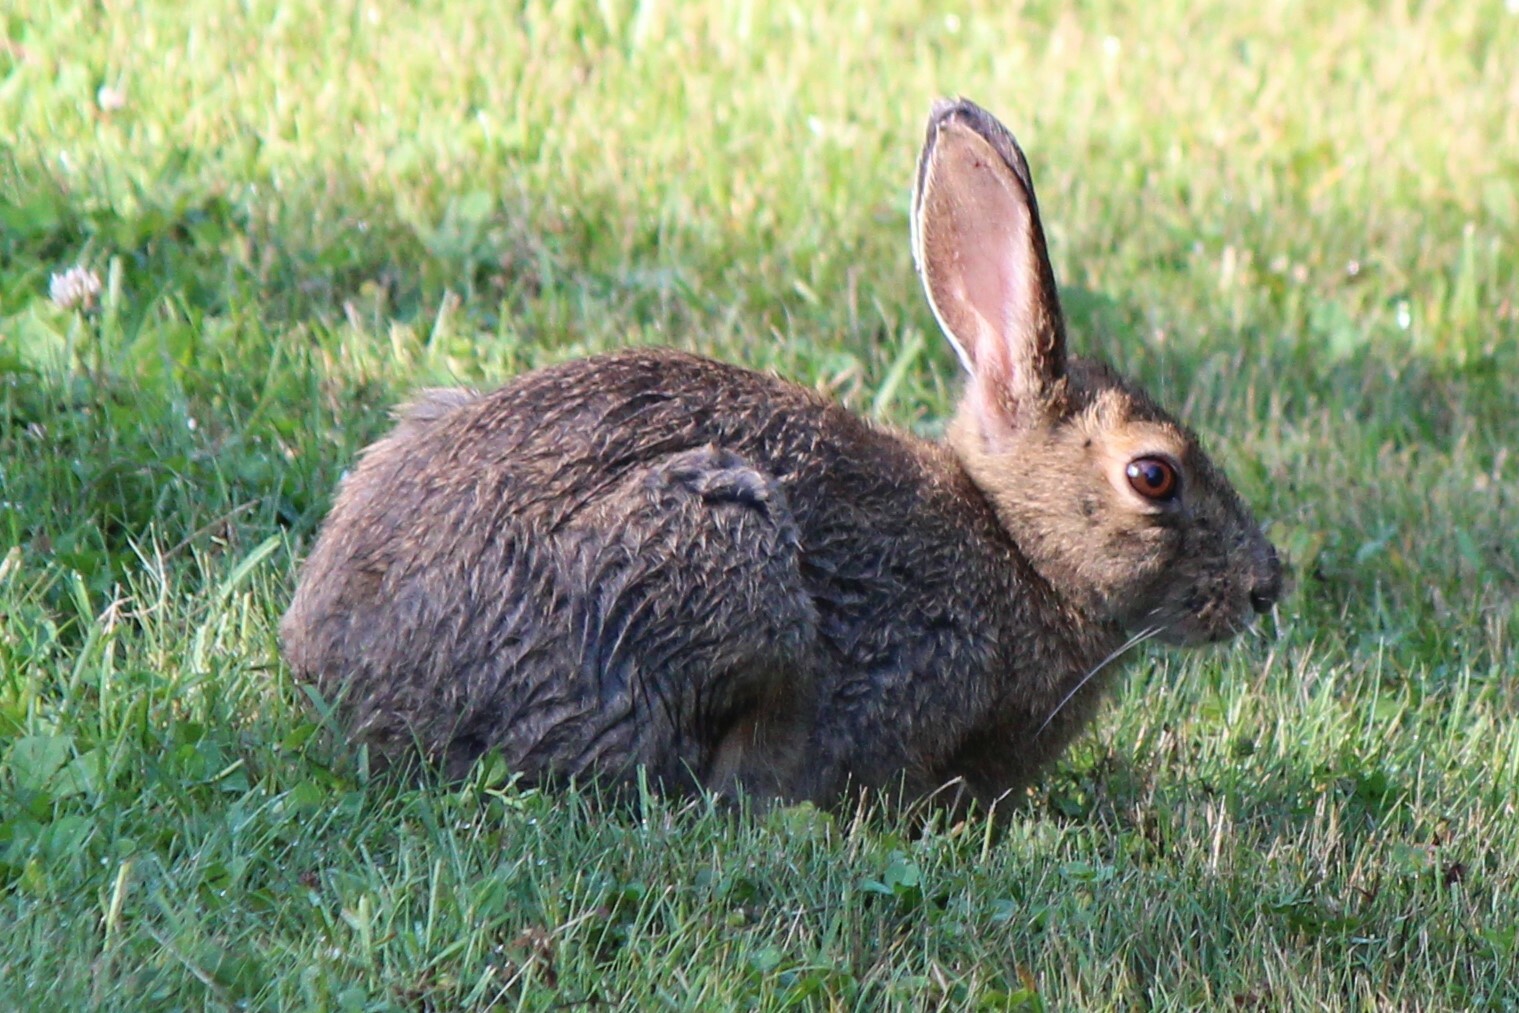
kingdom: Animalia
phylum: Chordata
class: Mammalia
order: Lagomorpha
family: Leporidae
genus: Lepus
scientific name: Lepus americanus
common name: Snowshoe hare
